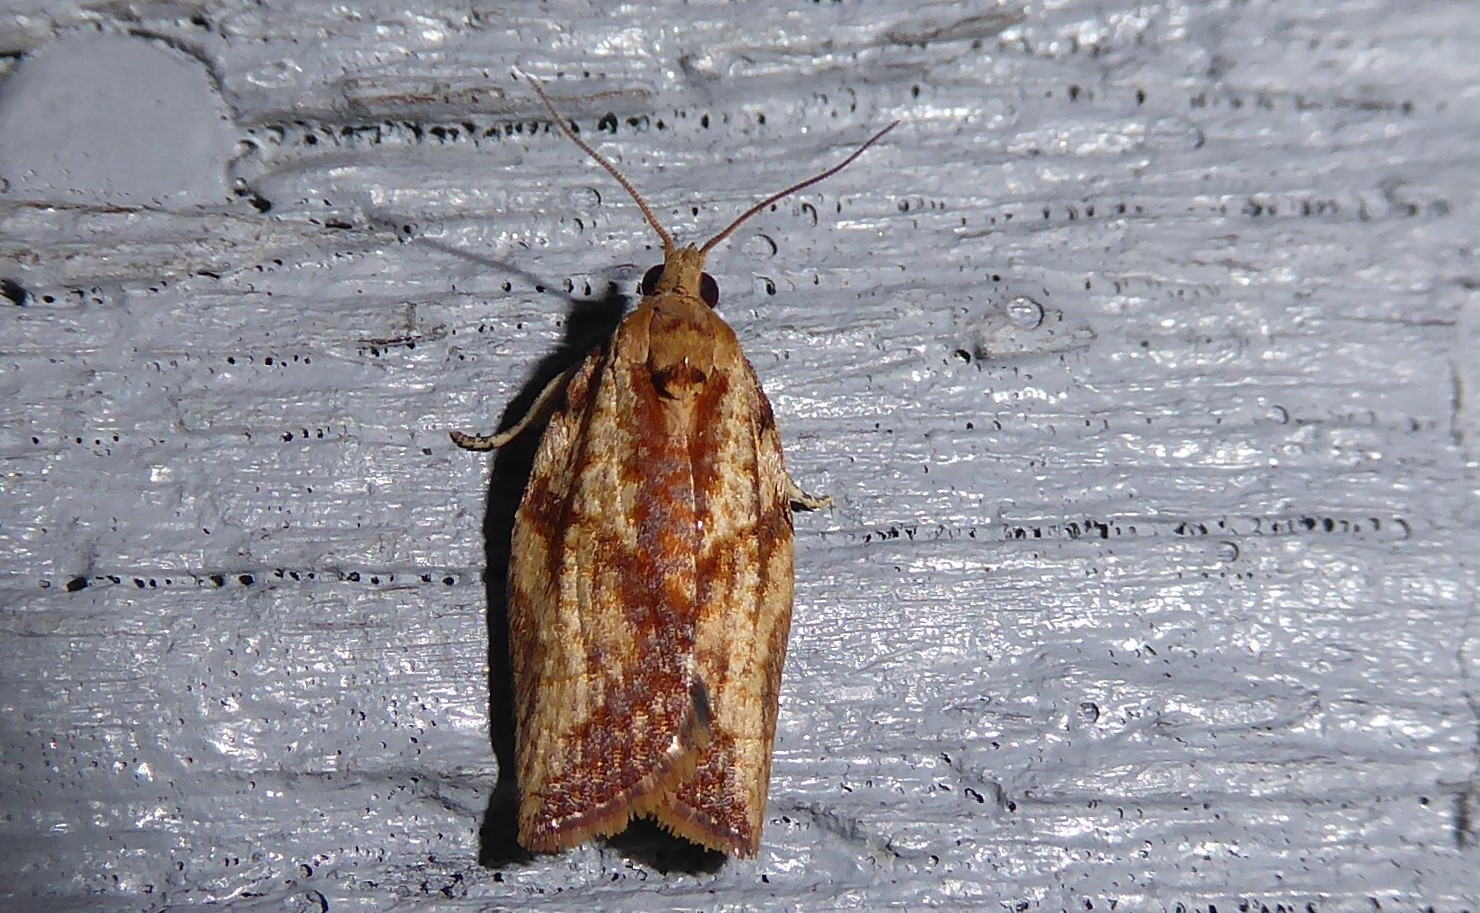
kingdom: Animalia
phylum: Arthropoda
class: Insecta
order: Lepidoptera
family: Tortricidae
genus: Epiphyas
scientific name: Epiphyas postvittana
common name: Light brown apple moth
